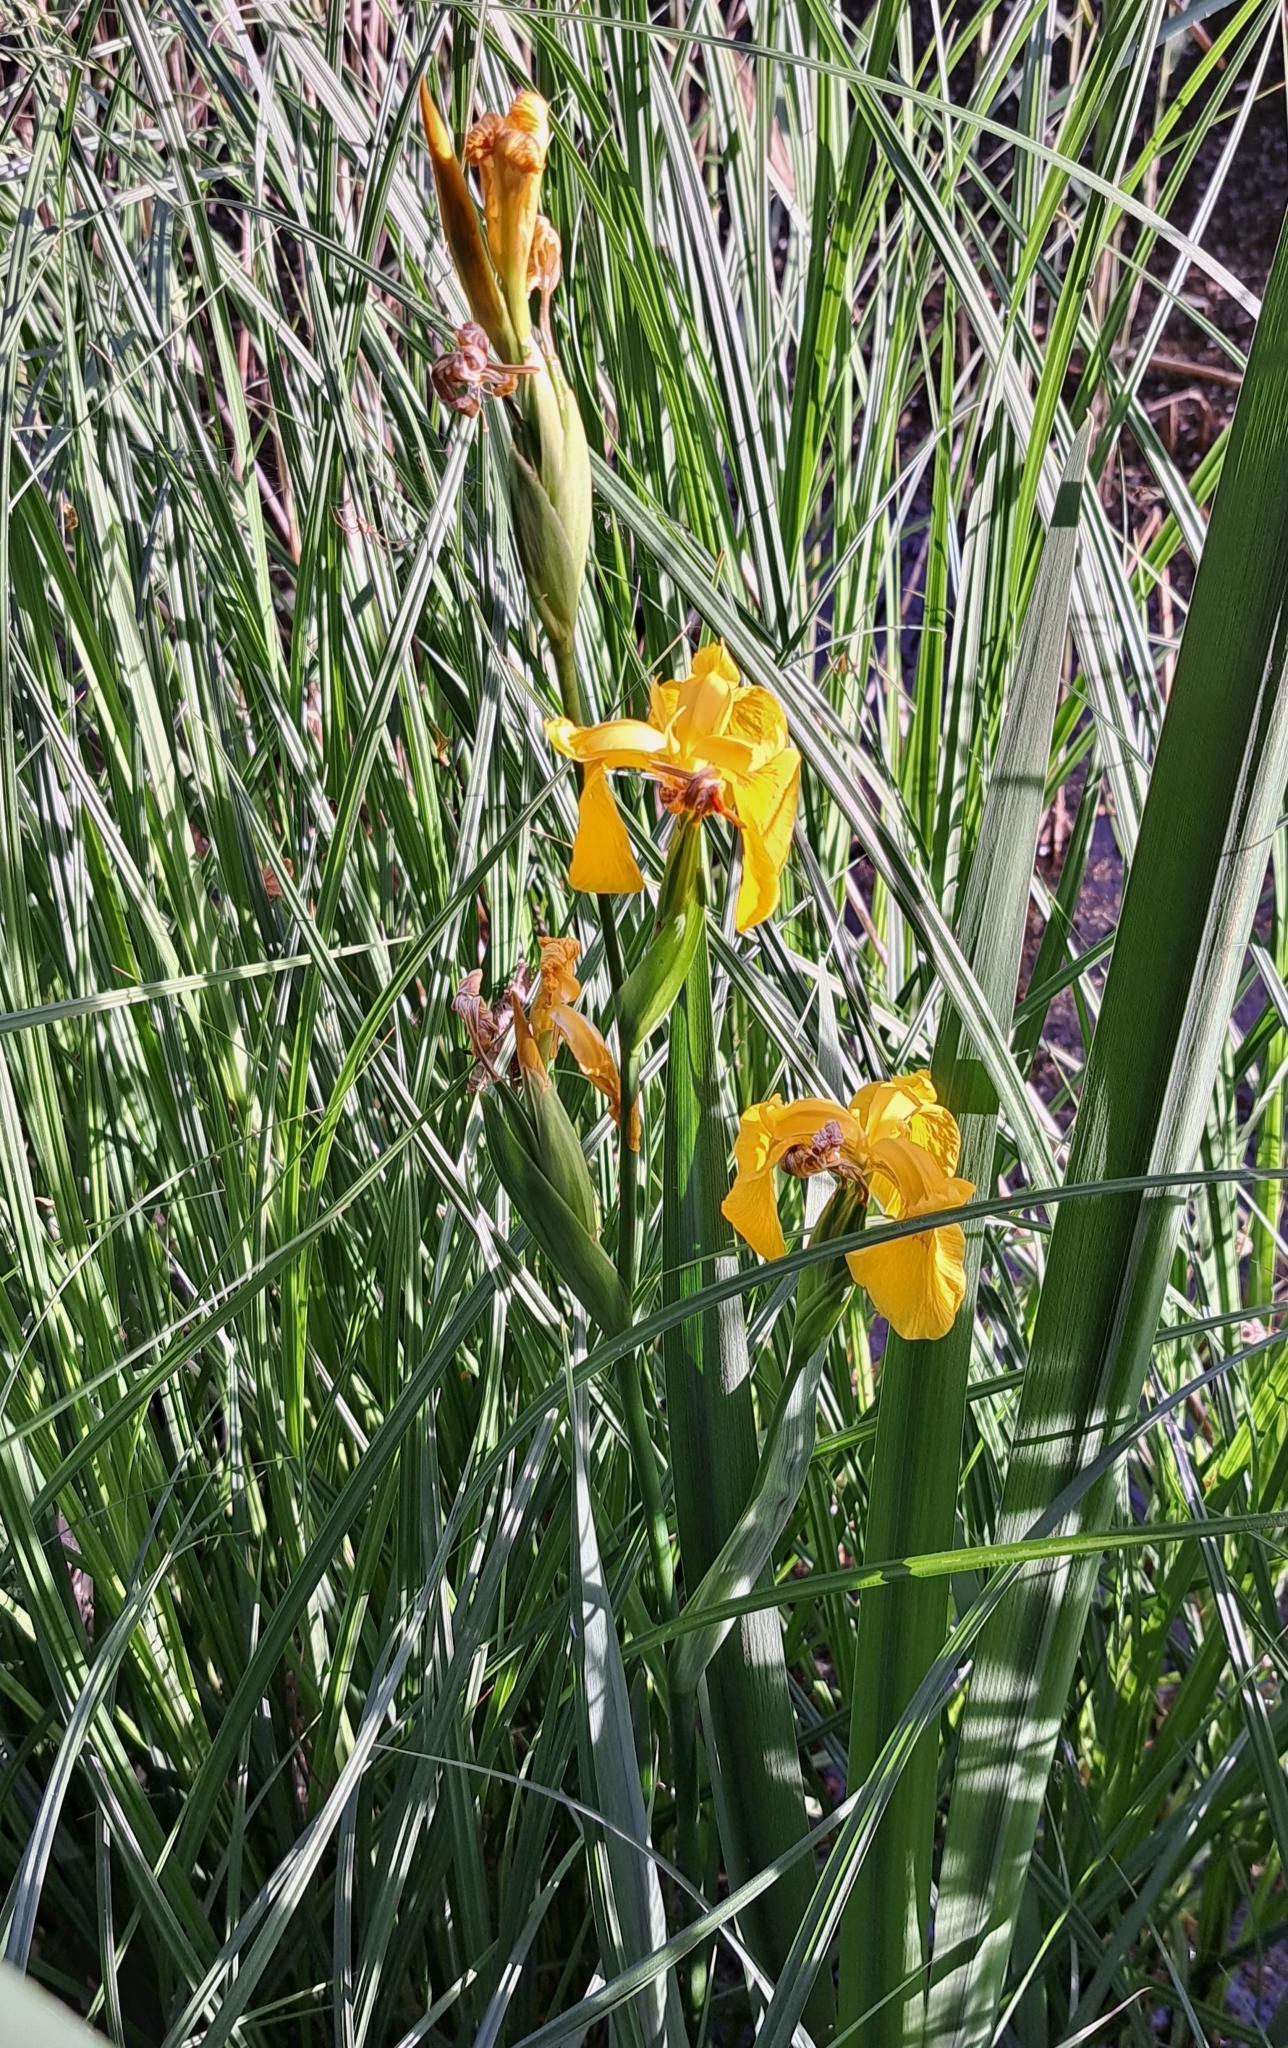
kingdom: Plantae
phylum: Tracheophyta
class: Liliopsida
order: Asparagales
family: Iridaceae
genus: Iris
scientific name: Iris pseudacorus
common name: Yellow flag
